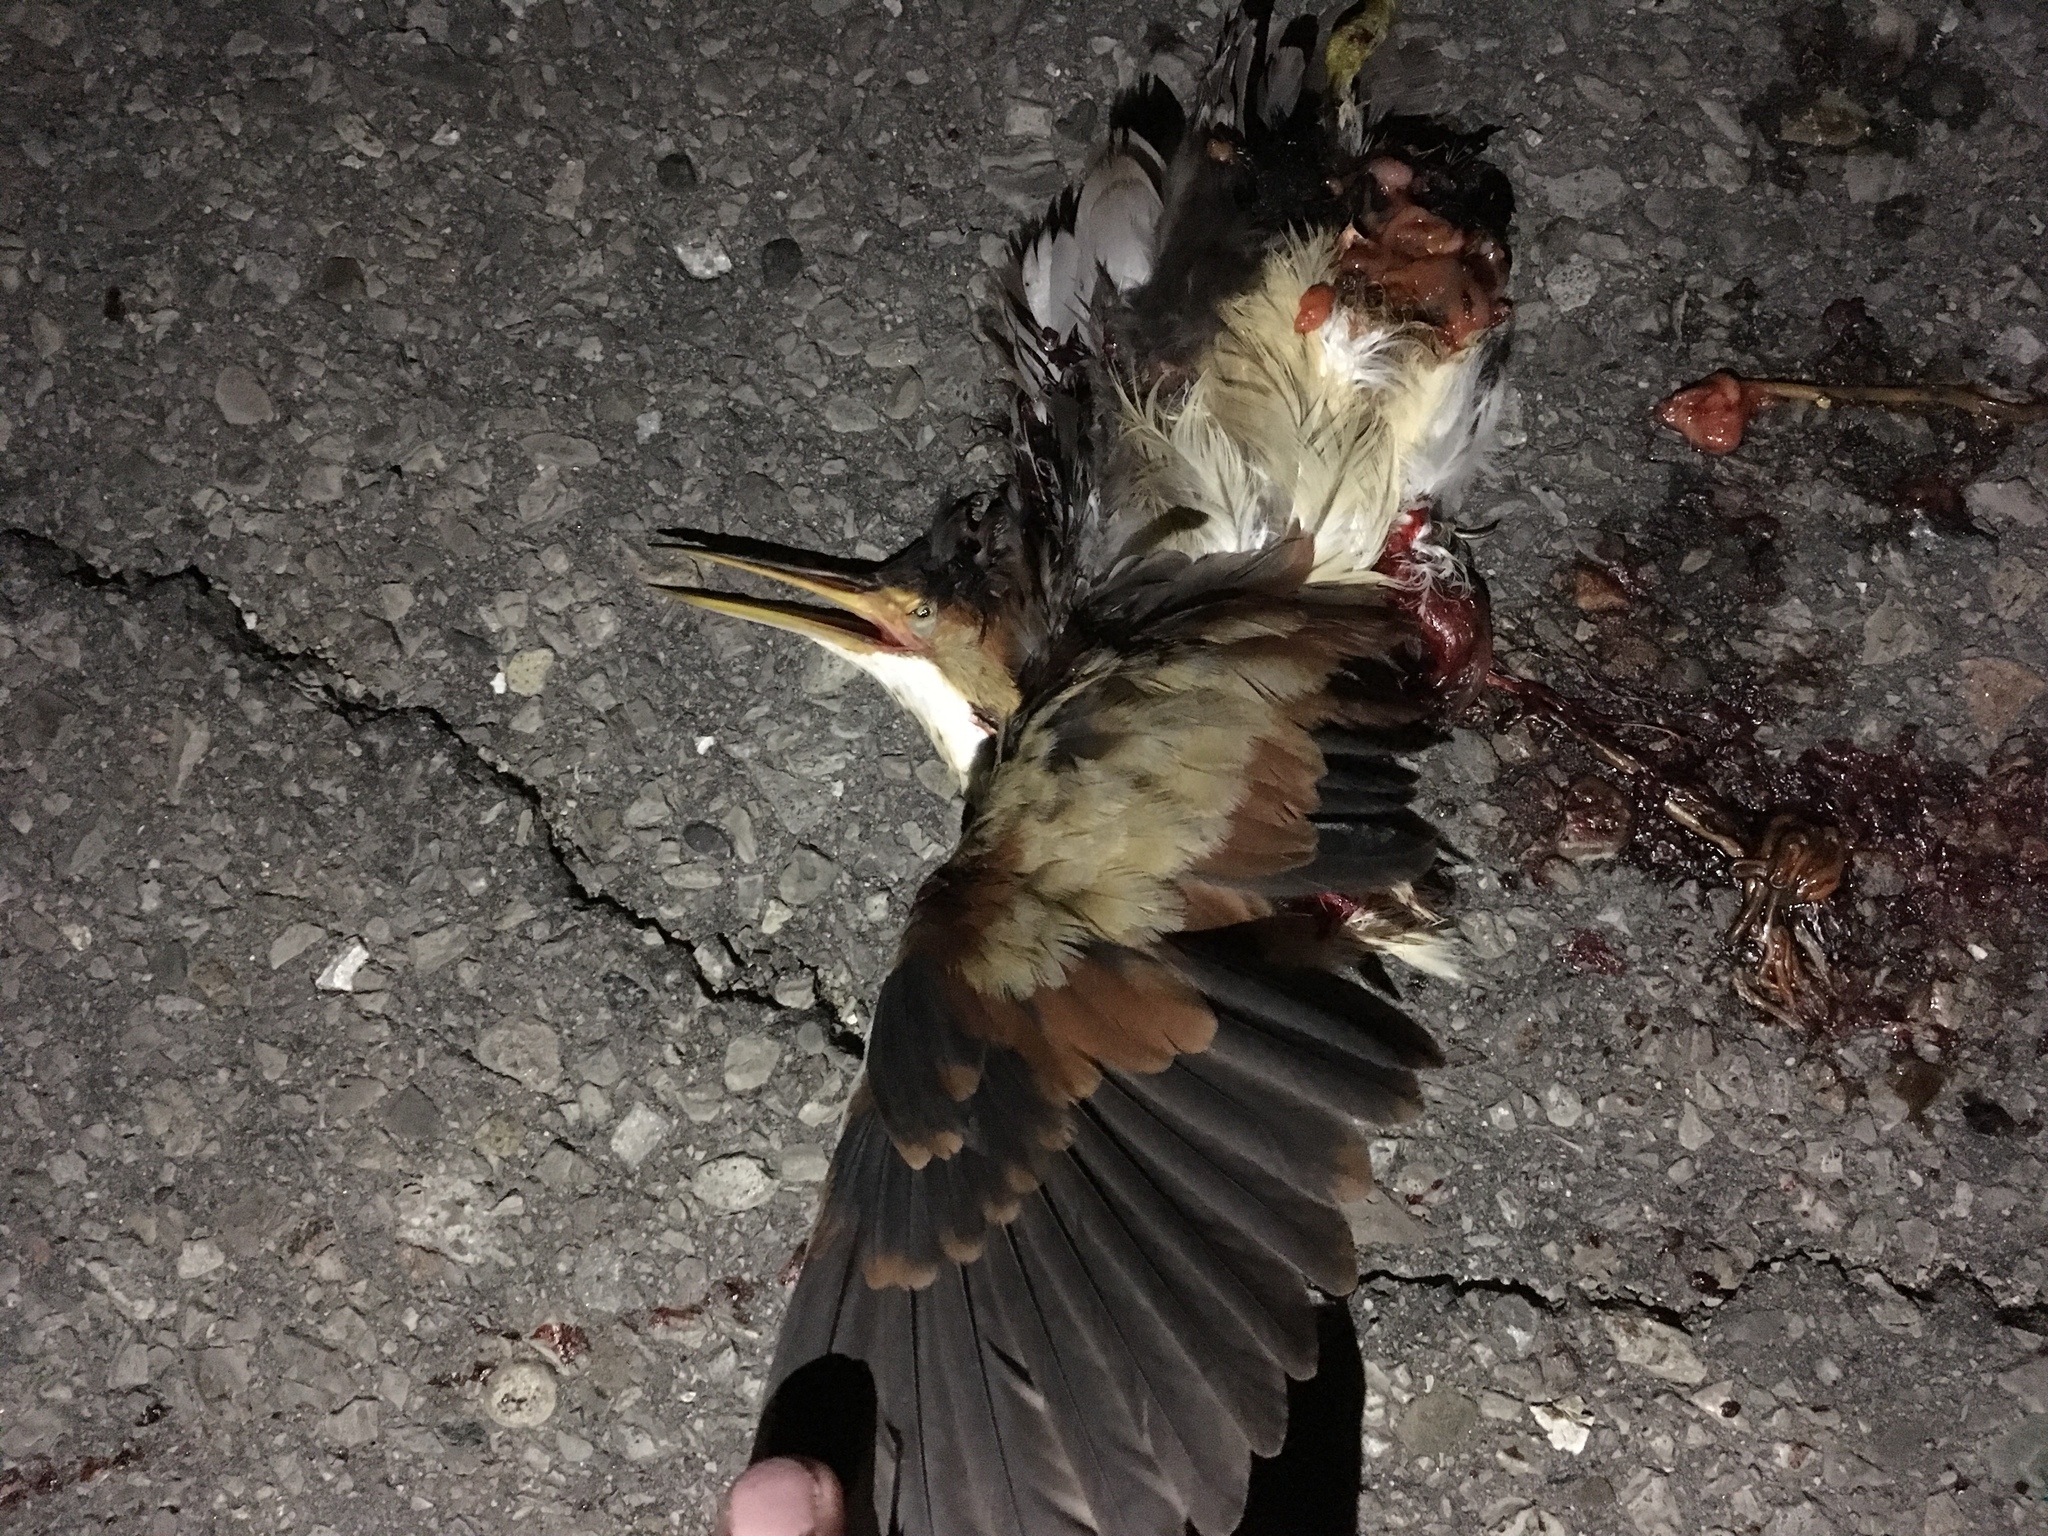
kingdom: Animalia
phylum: Chordata
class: Aves
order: Pelecaniformes
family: Ardeidae
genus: Ixobrychus
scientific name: Ixobrychus exilis
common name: Least bittern
